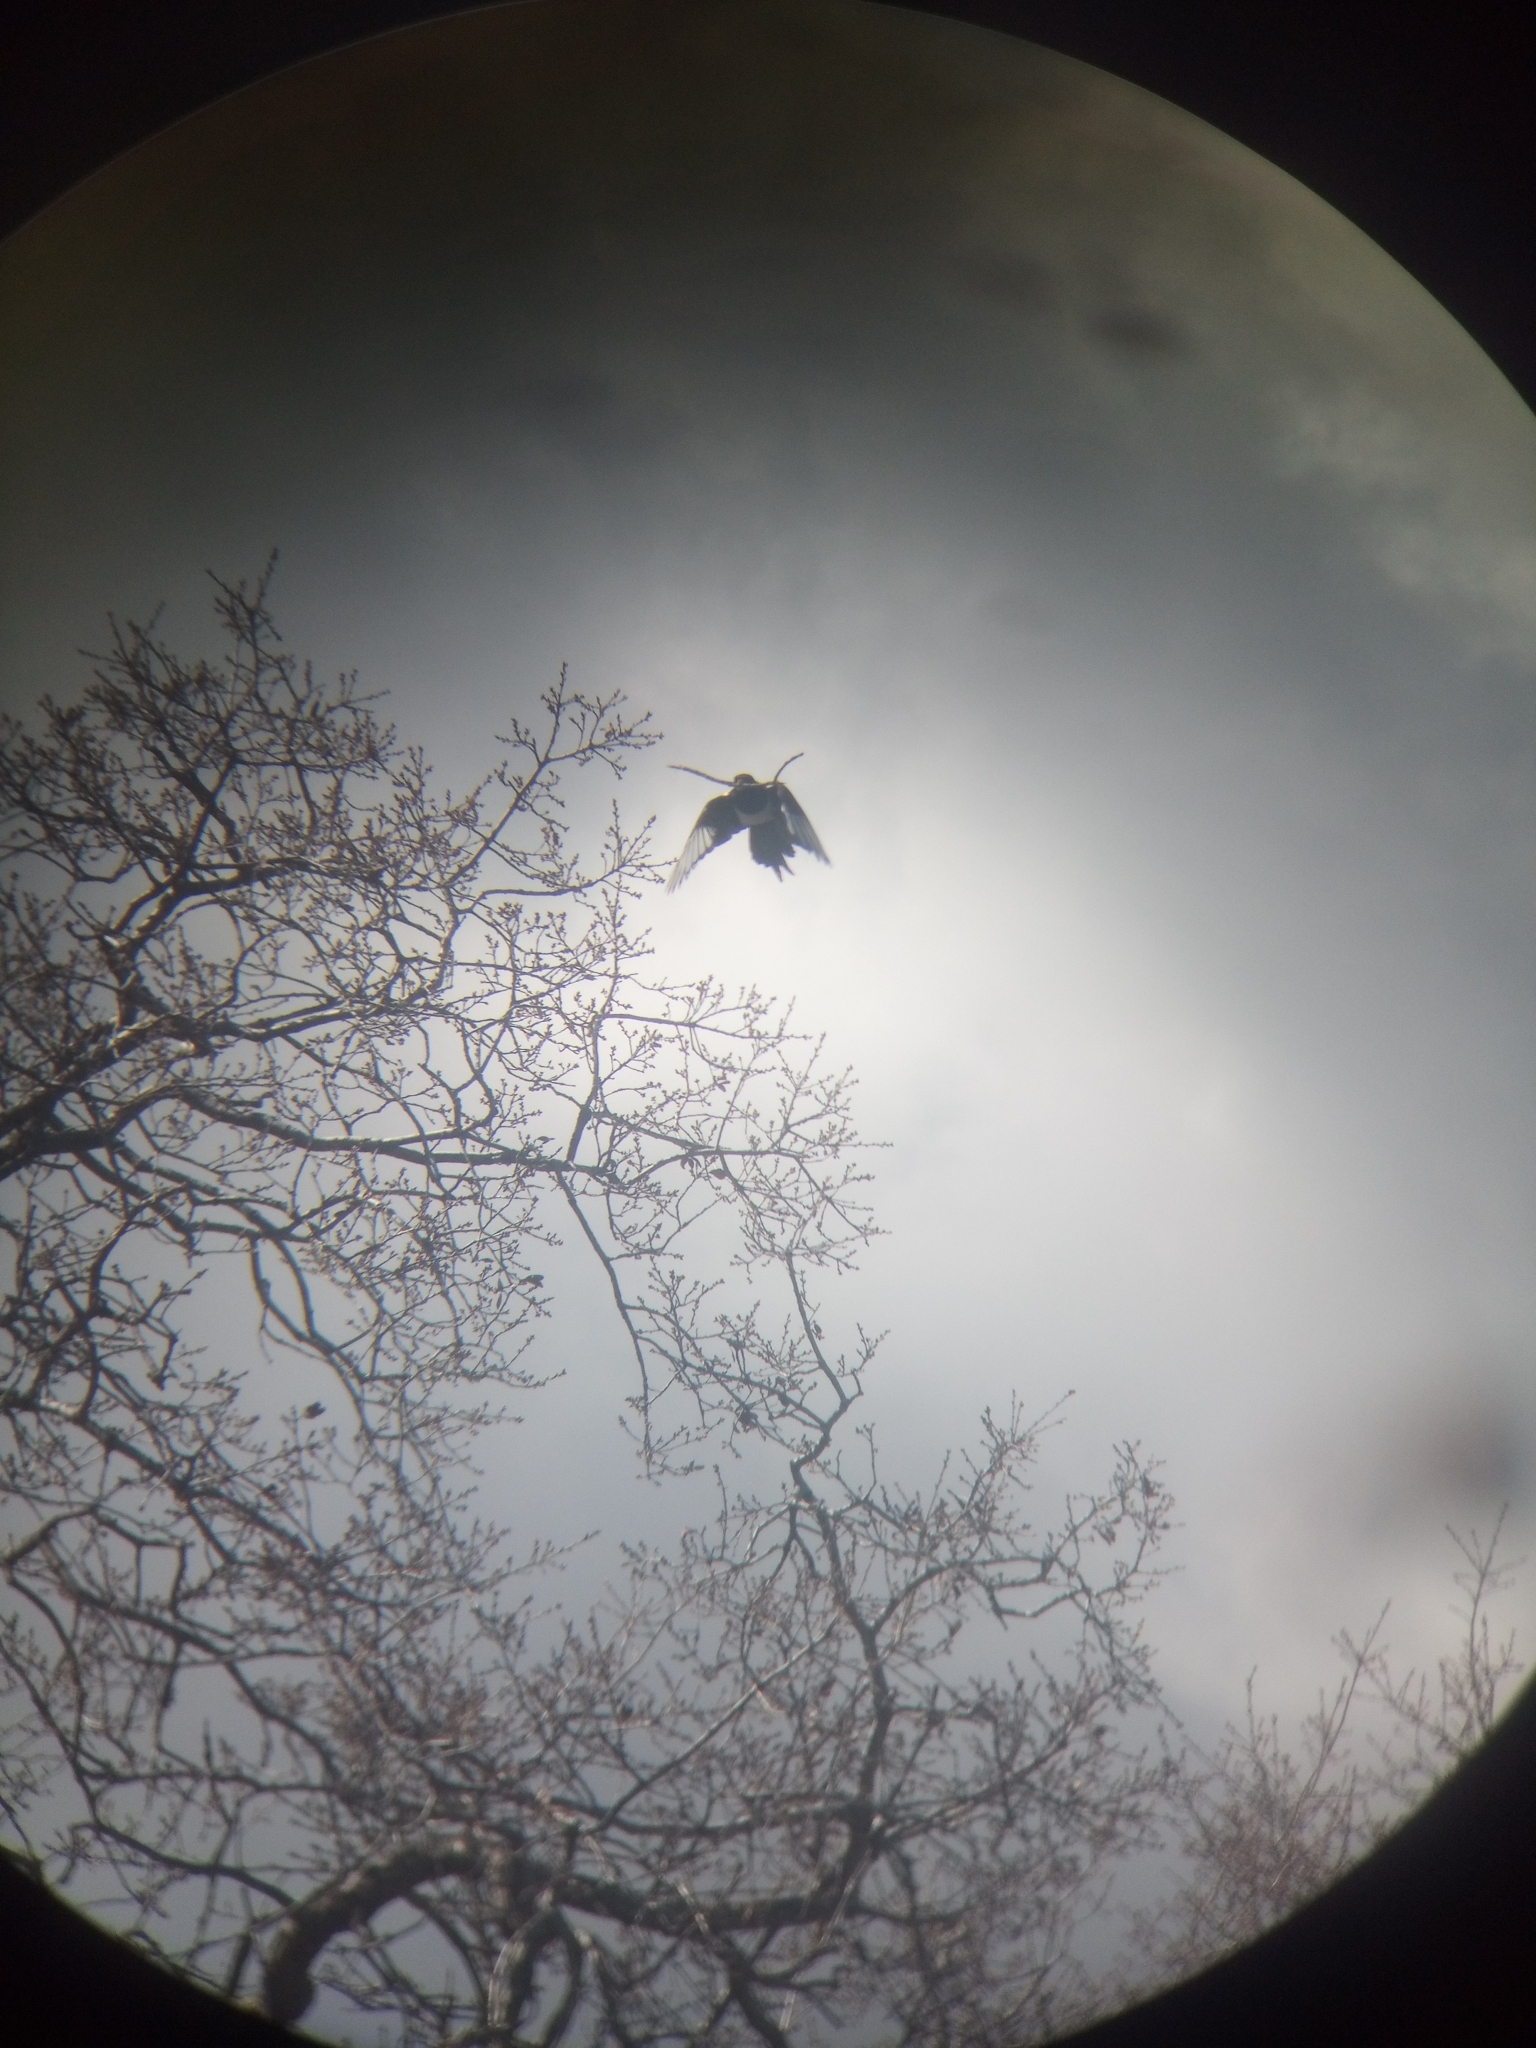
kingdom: Animalia
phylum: Chordata
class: Aves
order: Passeriformes
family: Corvidae
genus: Pica
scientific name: Pica nuttalli
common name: Yellow-billed magpie
